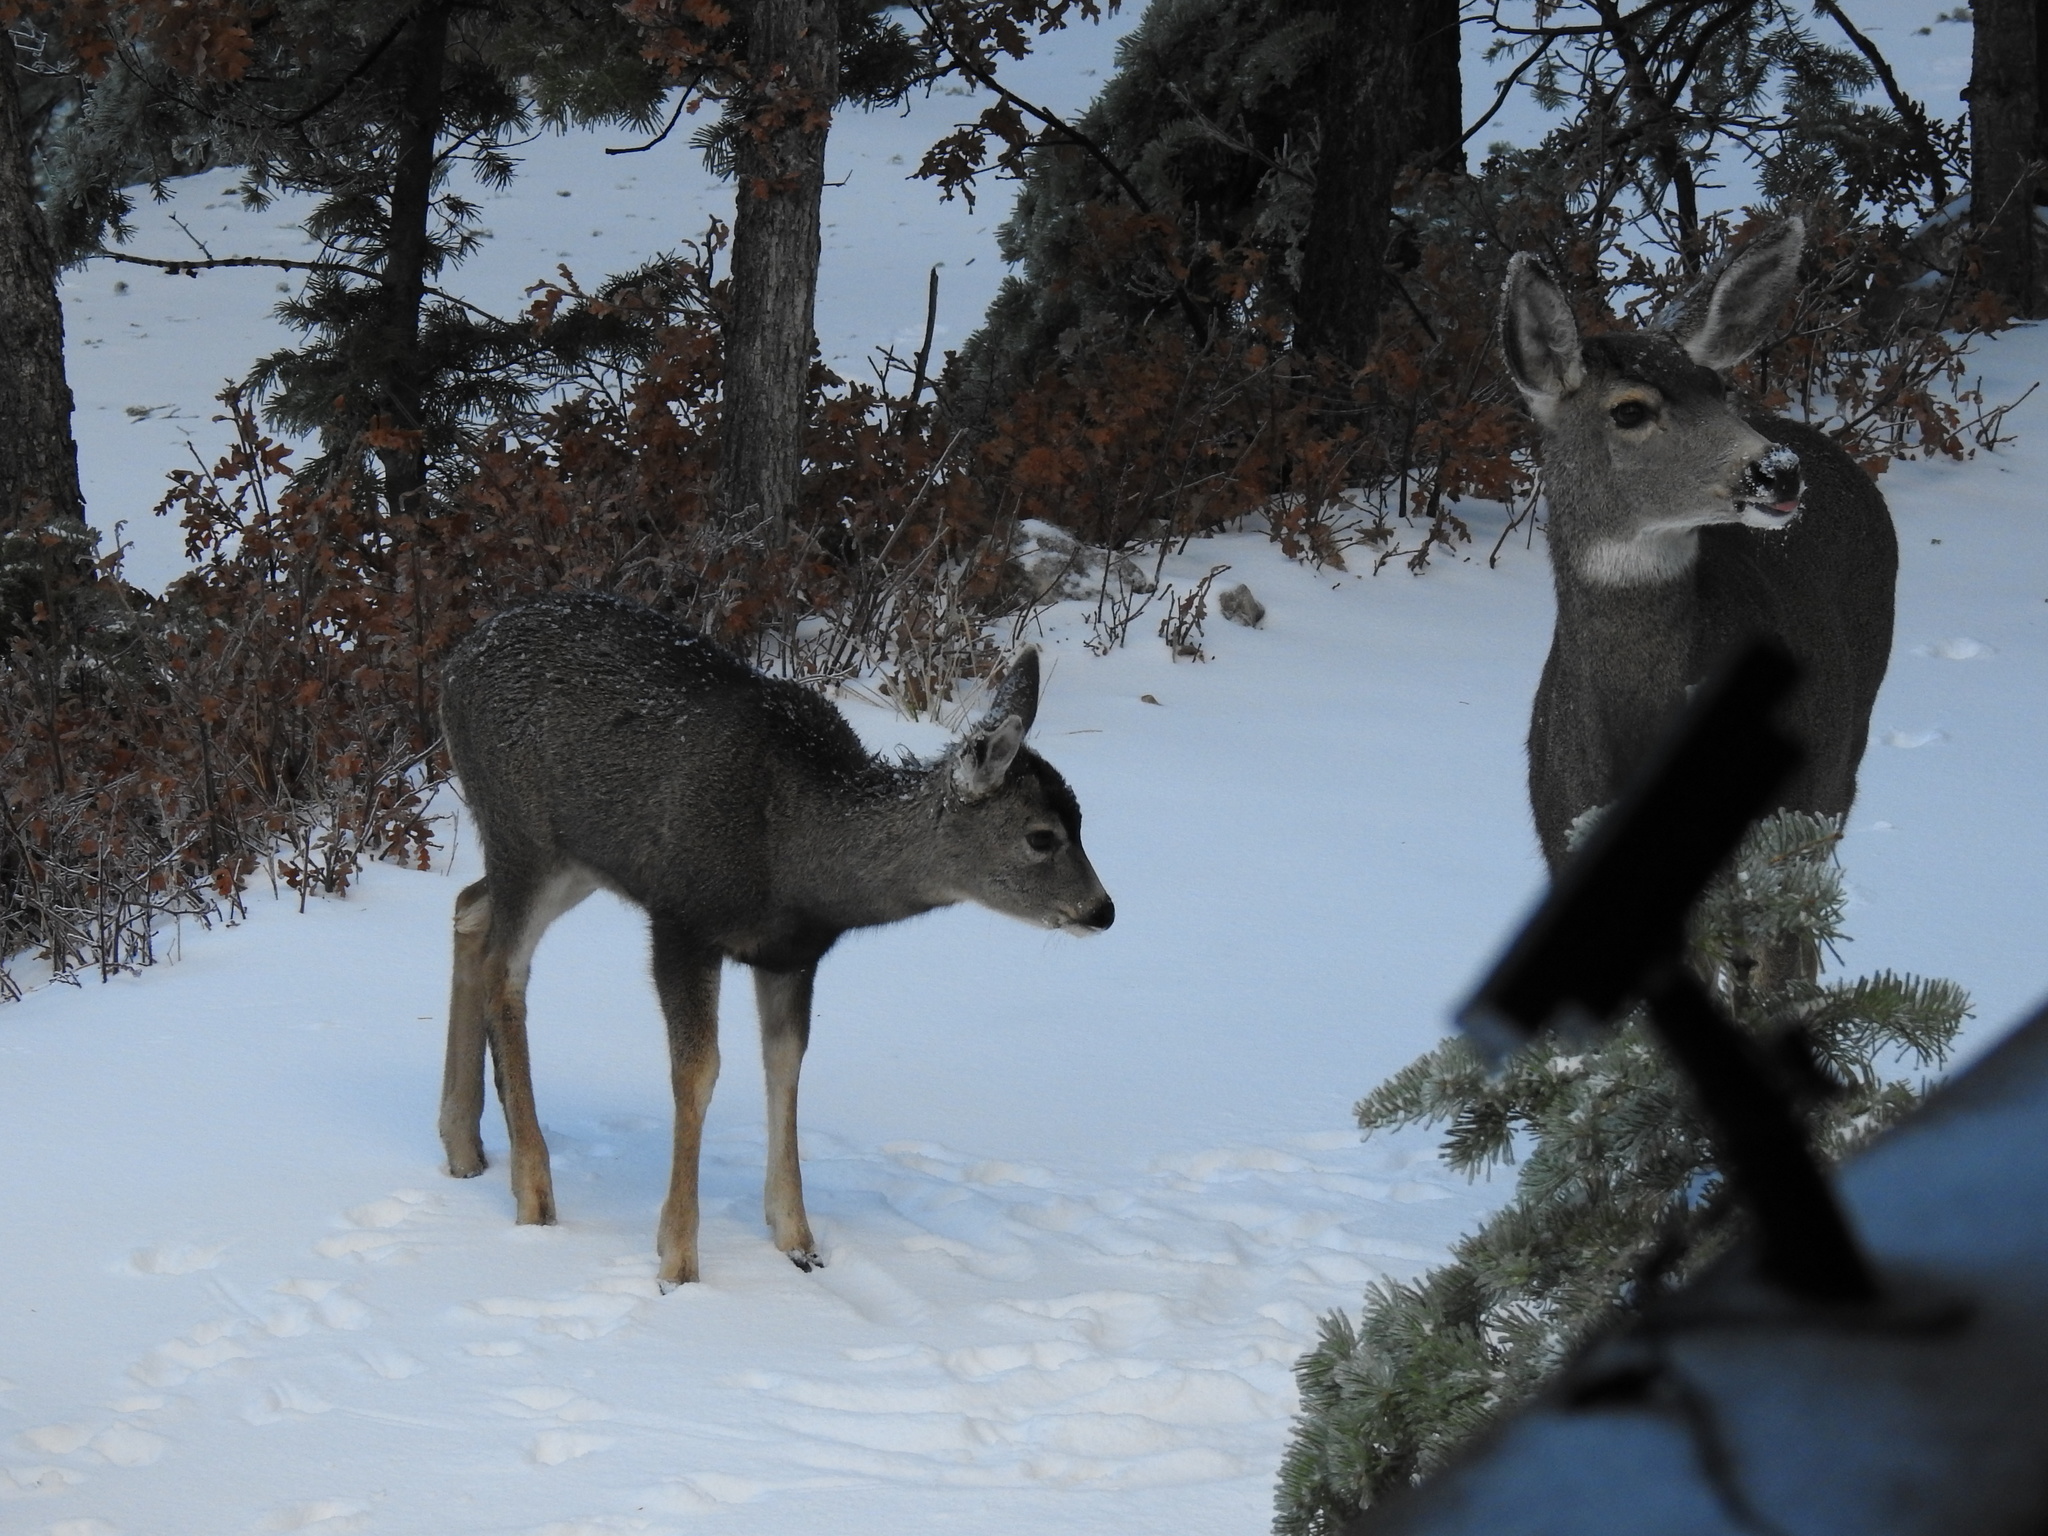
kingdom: Animalia
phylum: Chordata
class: Mammalia
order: Artiodactyla
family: Cervidae
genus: Odocoileus
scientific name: Odocoileus hemionus
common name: Mule deer
